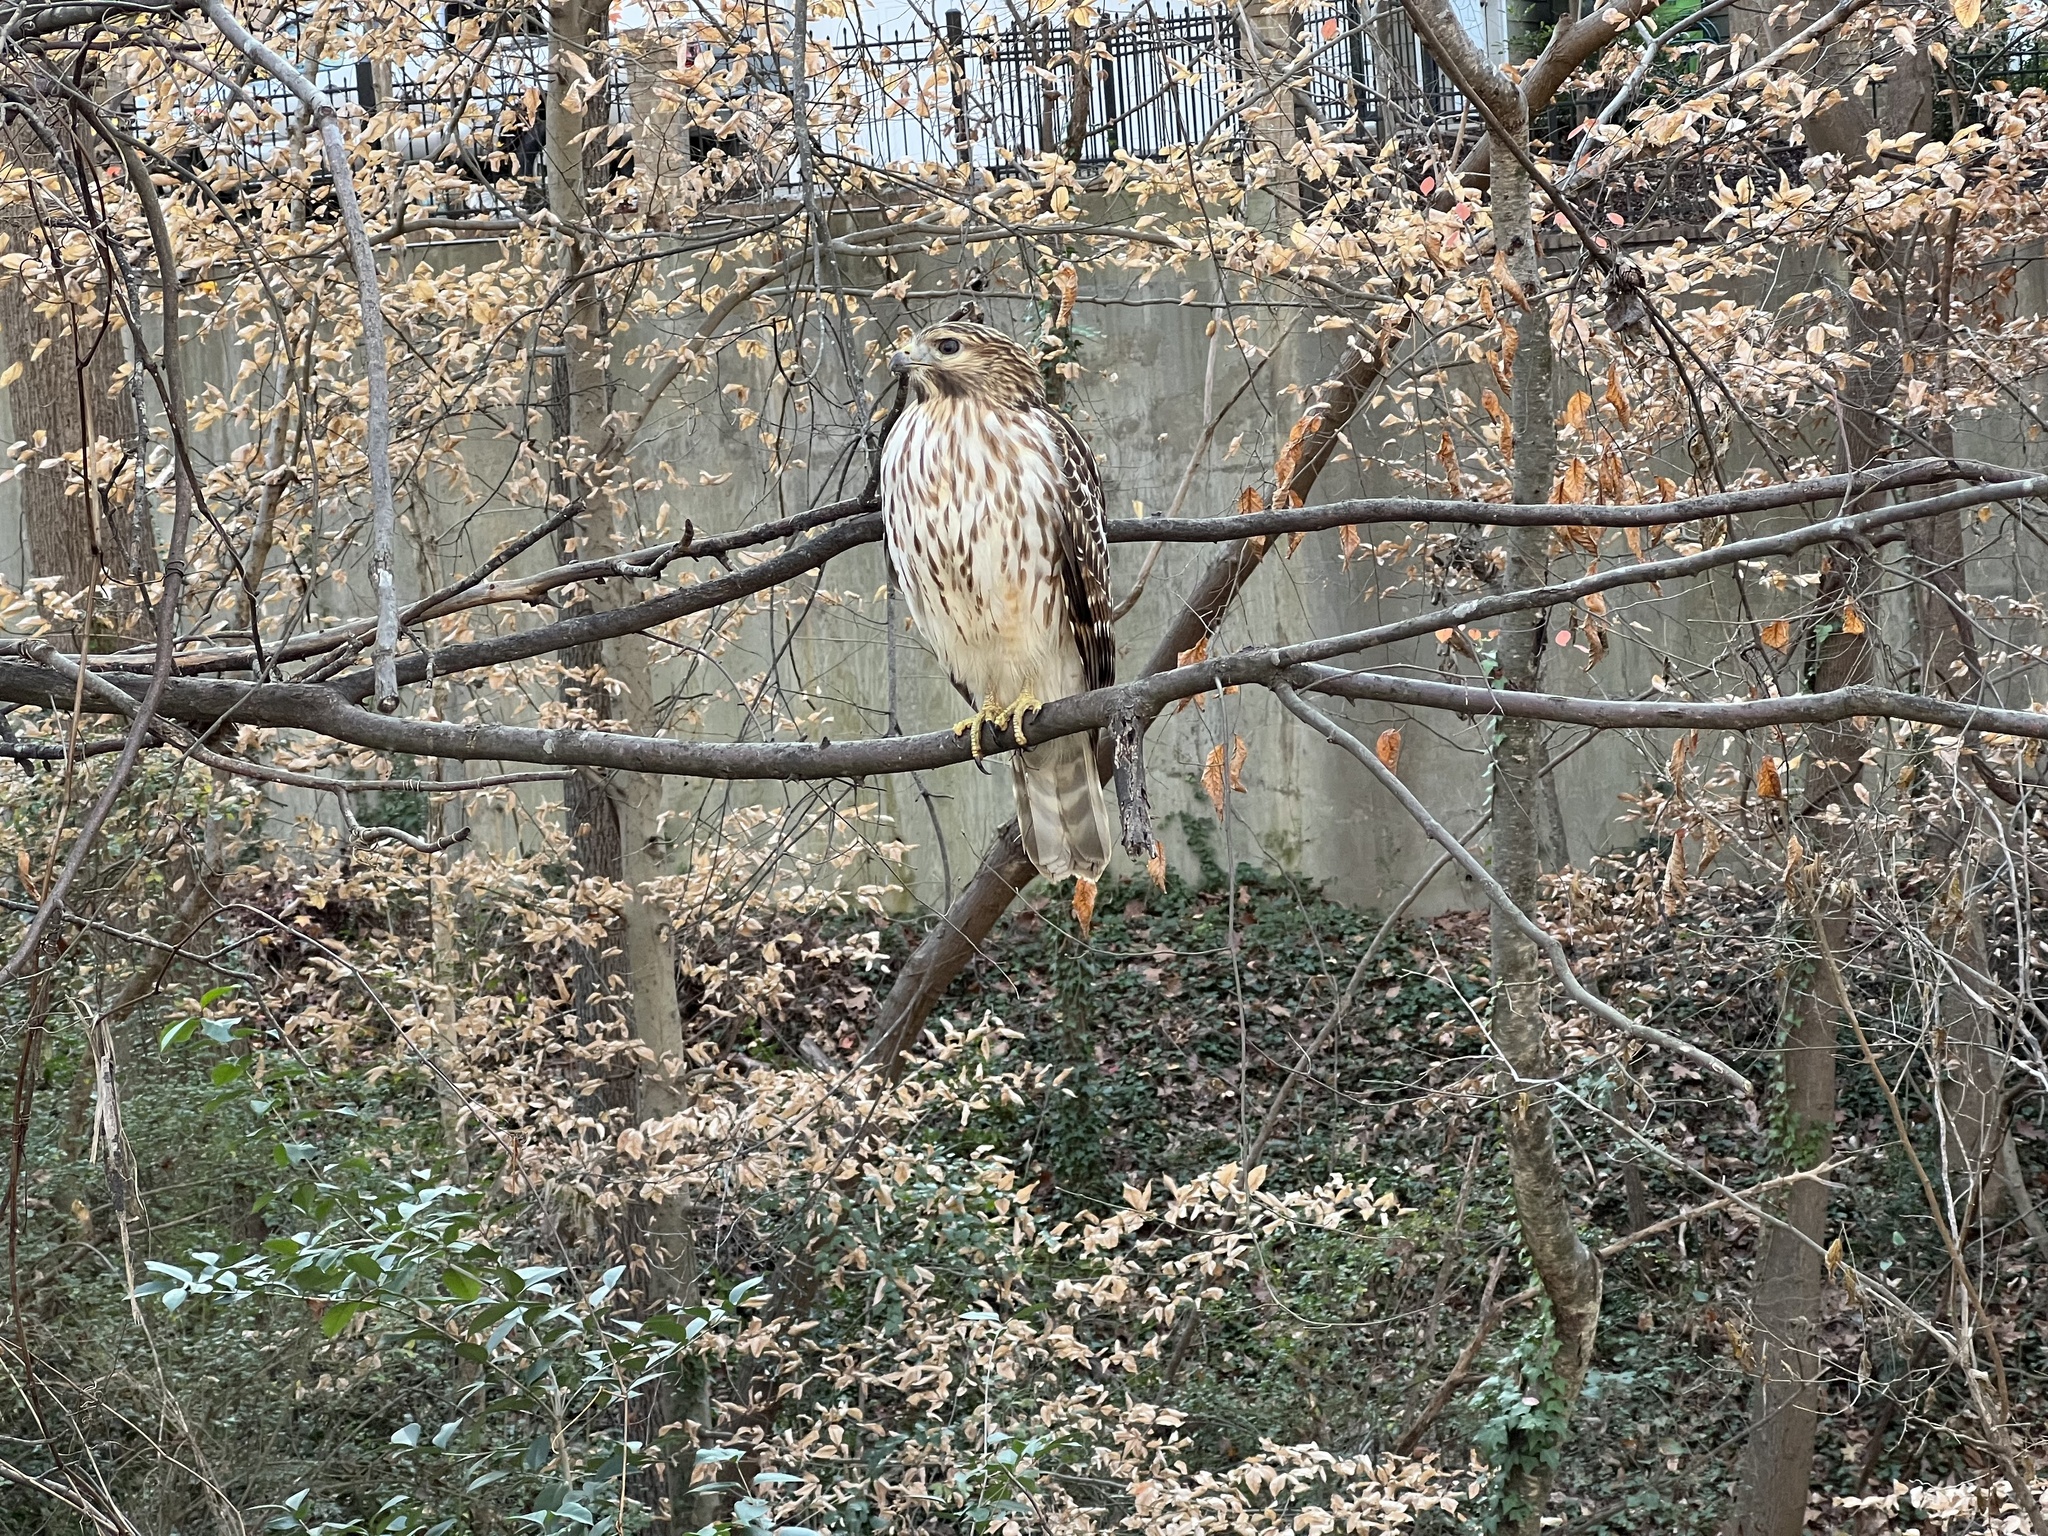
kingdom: Animalia
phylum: Chordata
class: Aves
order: Accipitriformes
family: Accipitridae
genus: Buteo
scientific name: Buteo lineatus
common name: Red-shouldered hawk
